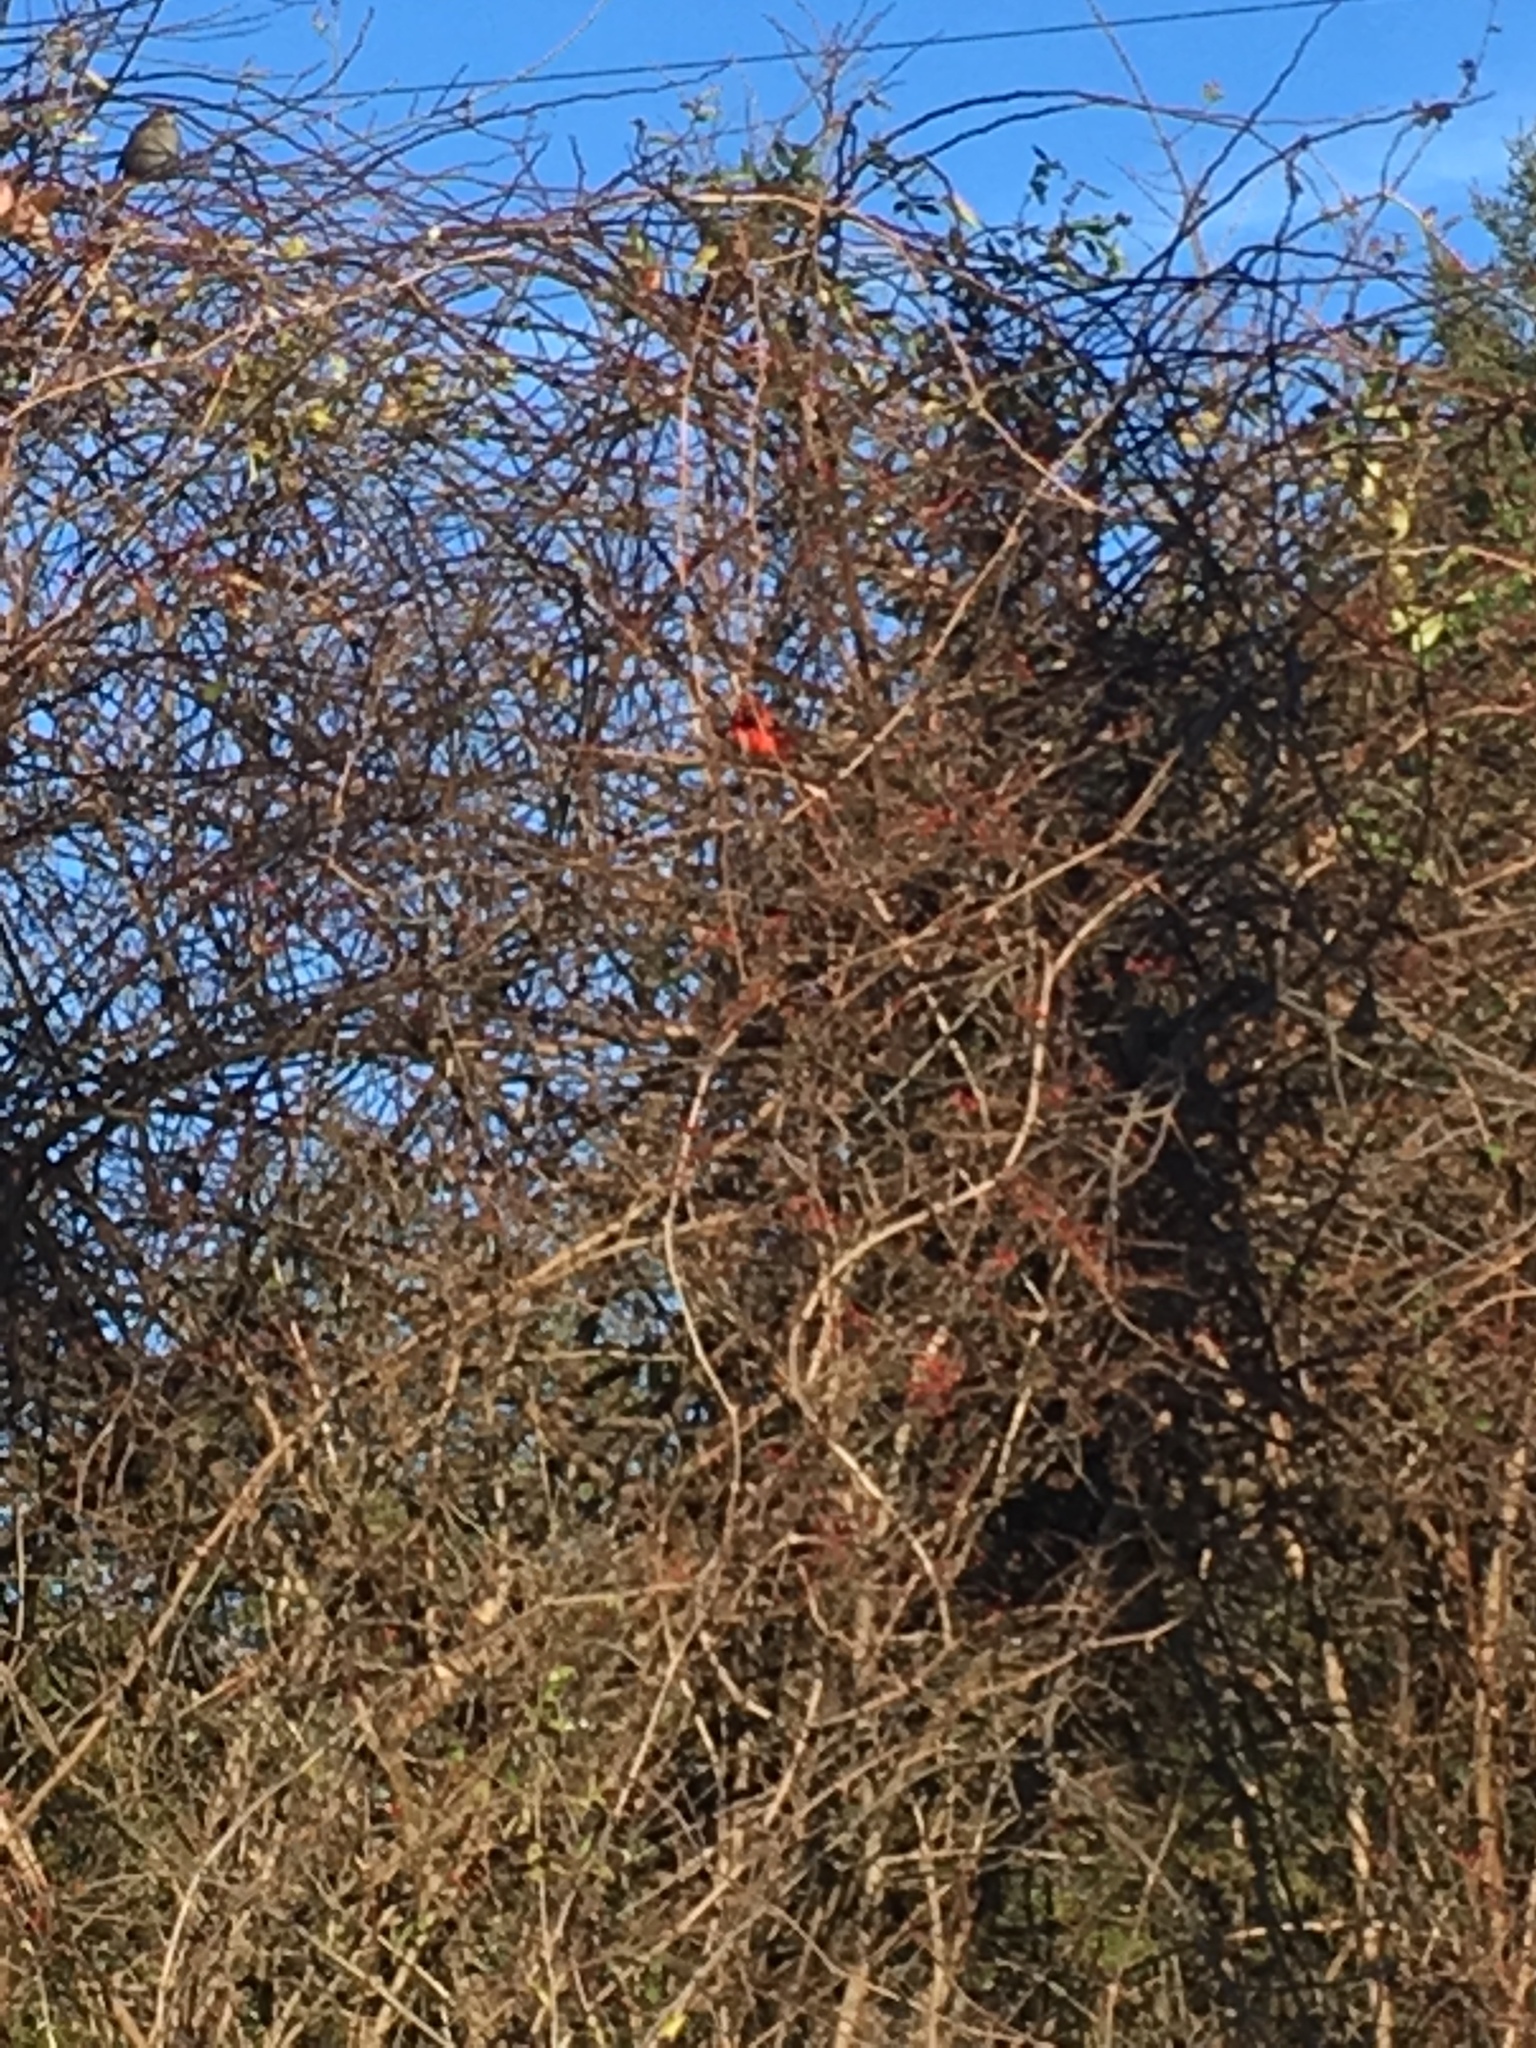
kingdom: Animalia
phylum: Chordata
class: Aves
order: Passeriformes
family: Cardinalidae
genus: Cardinalis
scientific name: Cardinalis cardinalis
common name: Northern cardinal
